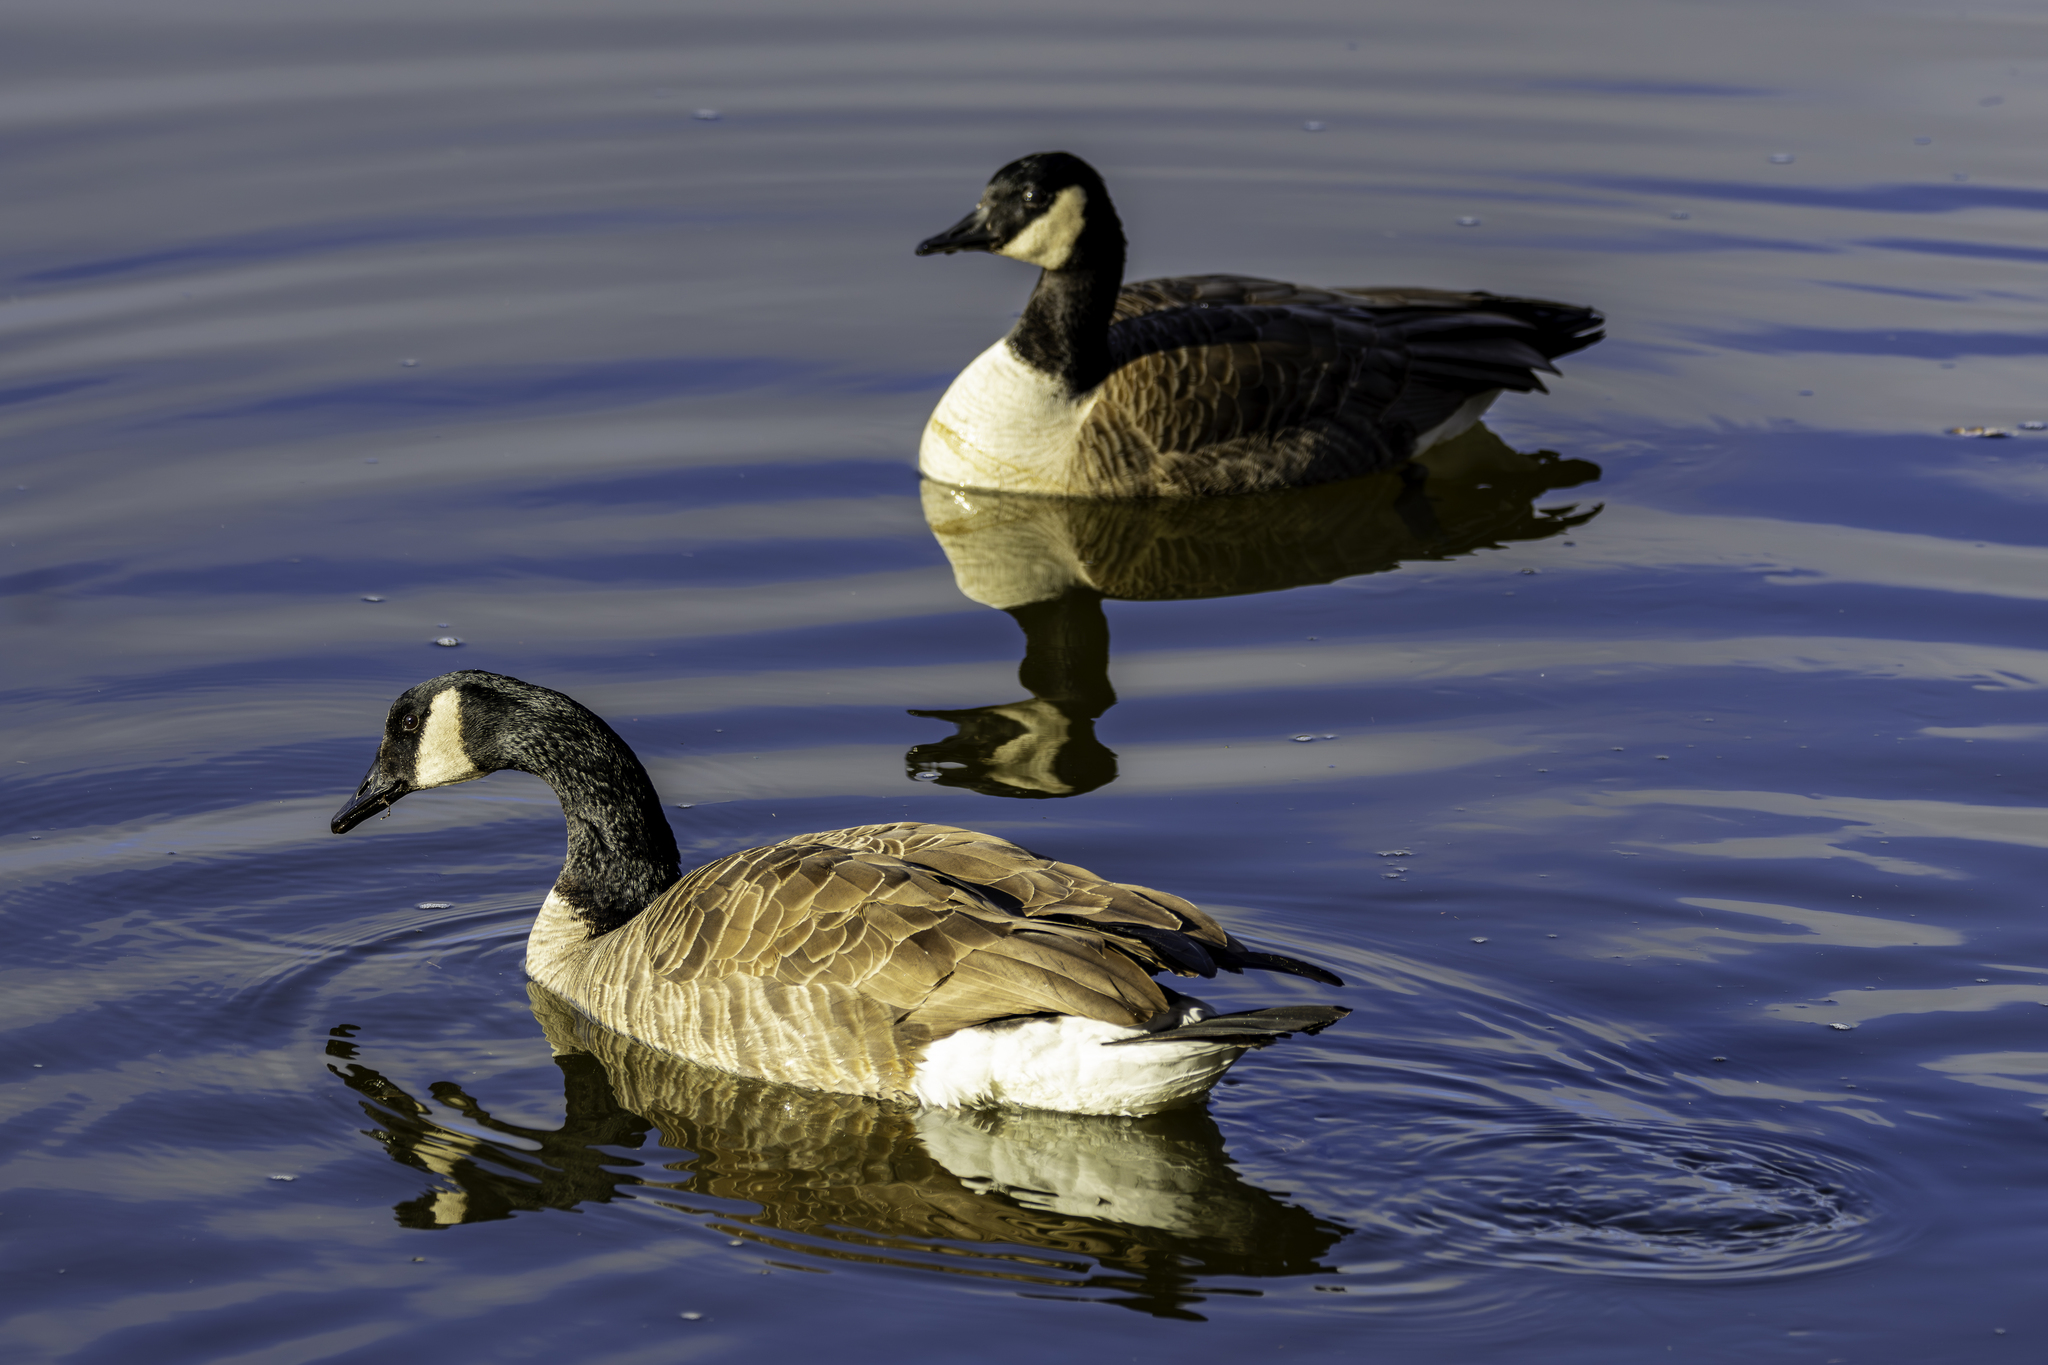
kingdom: Animalia
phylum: Chordata
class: Aves
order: Anseriformes
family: Anatidae
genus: Branta
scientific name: Branta canadensis
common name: Canada goose
